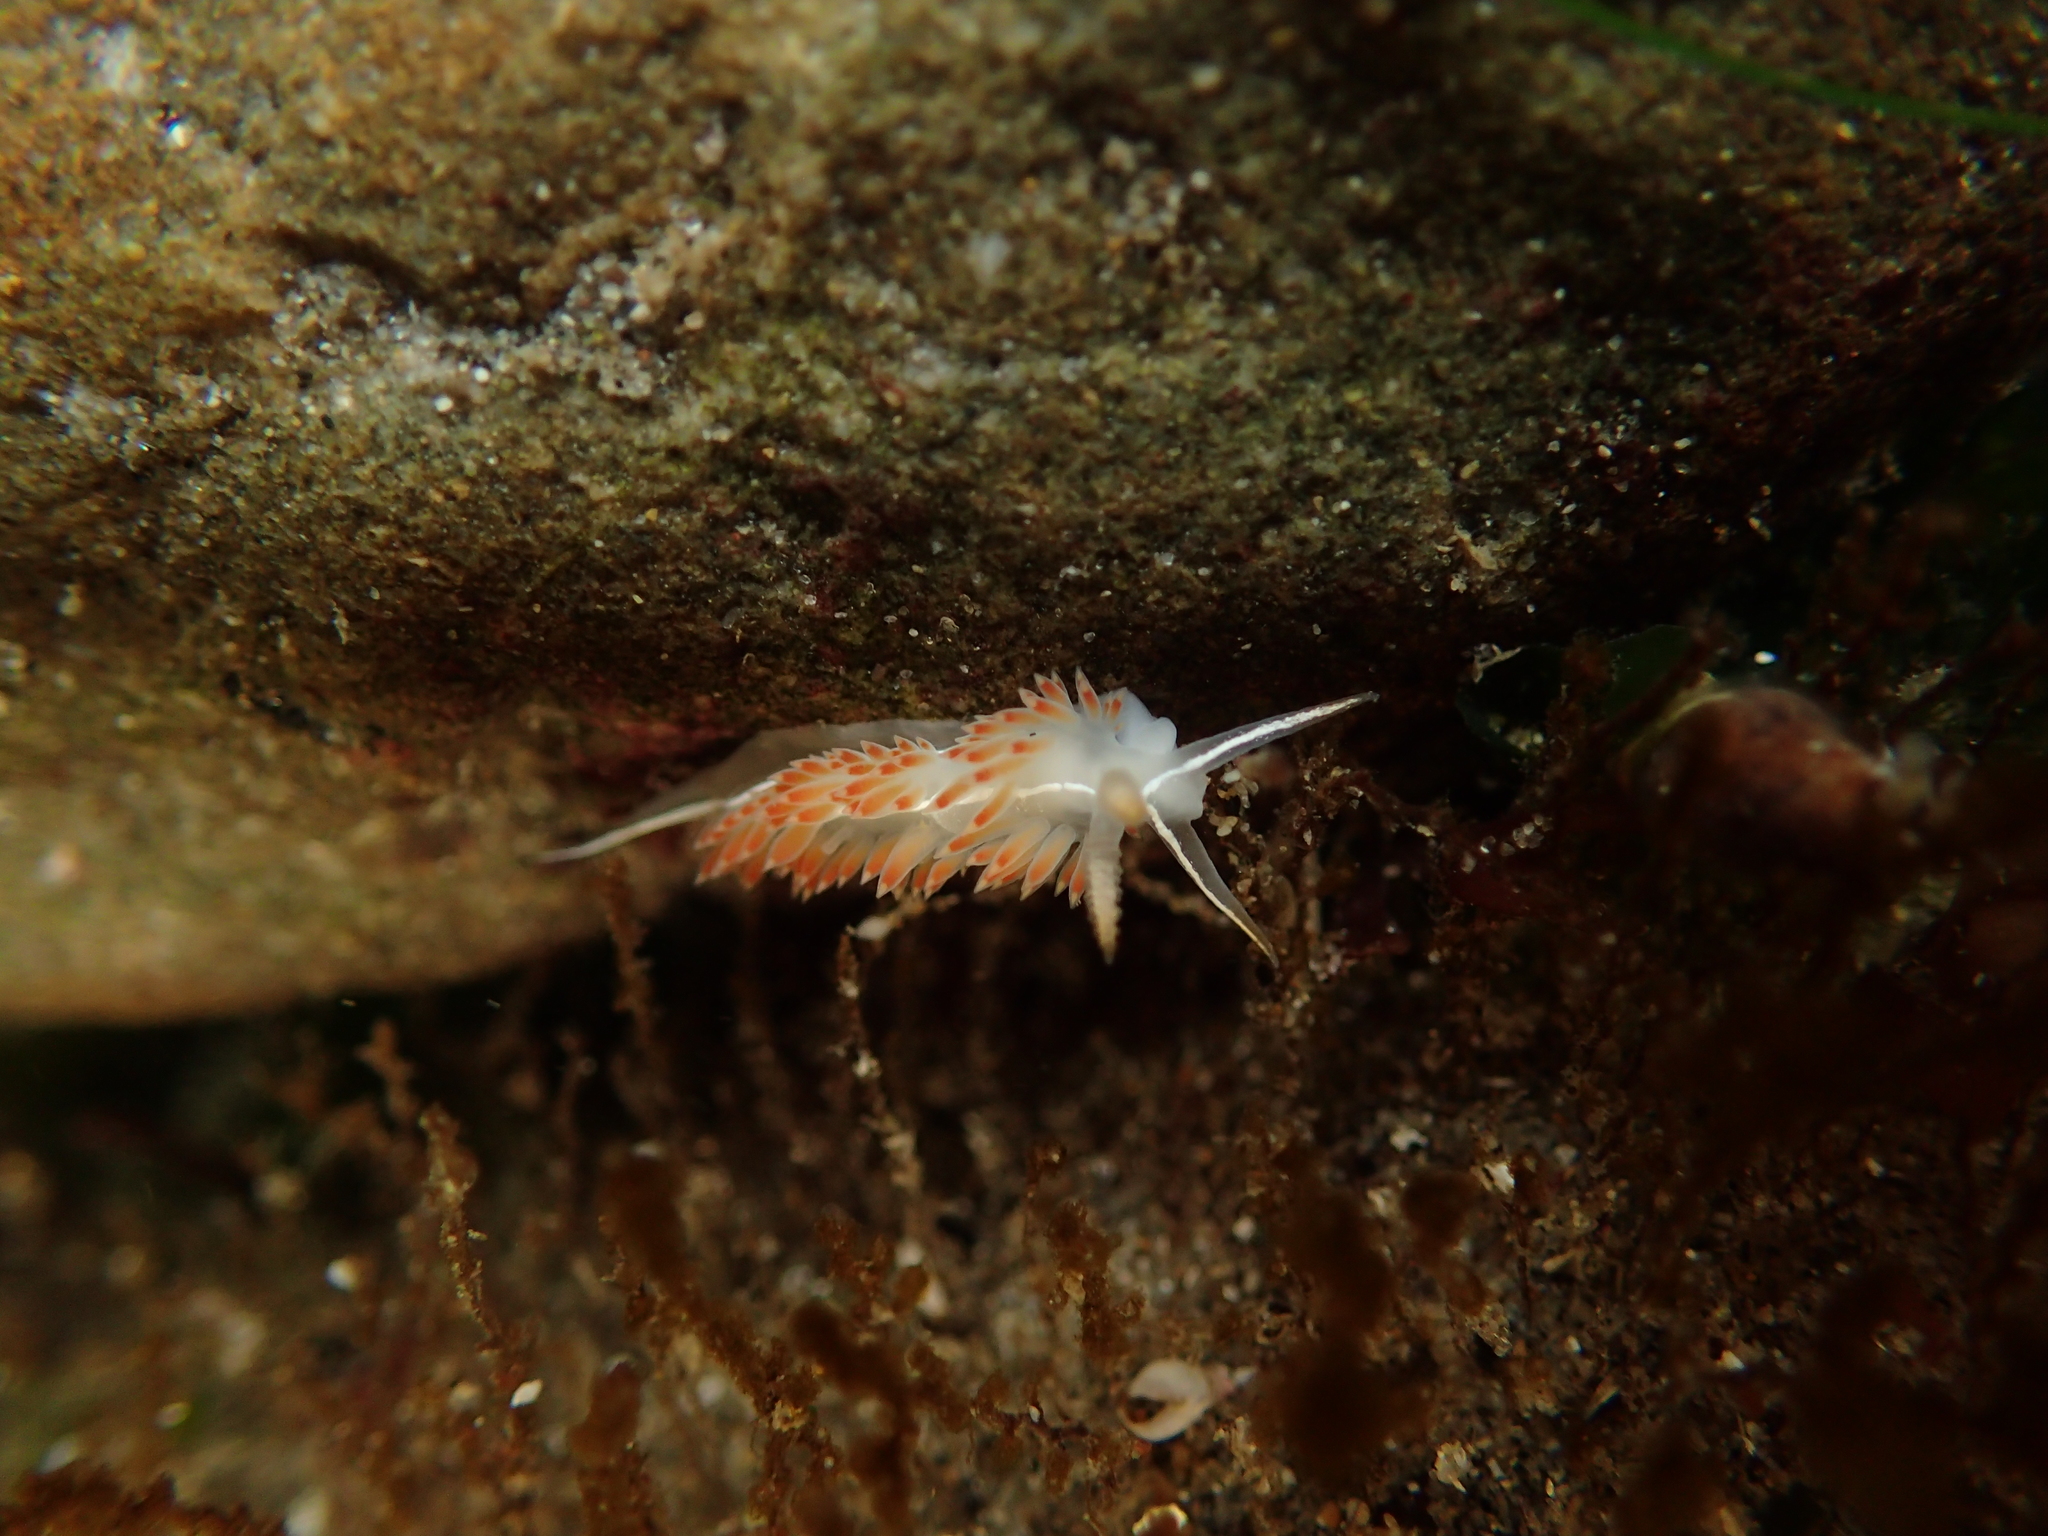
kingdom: Animalia
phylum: Mollusca
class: Gastropoda
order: Nudibranchia
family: Coryphellidae
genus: Coryphella
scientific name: Coryphella trilineata
